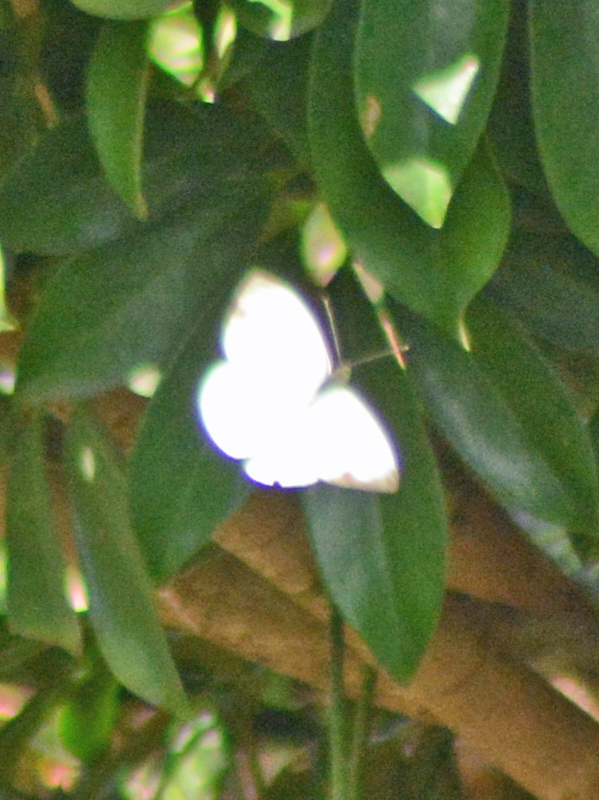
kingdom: Animalia
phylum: Arthropoda
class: Insecta
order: Lepidoptera
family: Pieridae
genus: Leptophobia
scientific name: Leptophobia aripa
